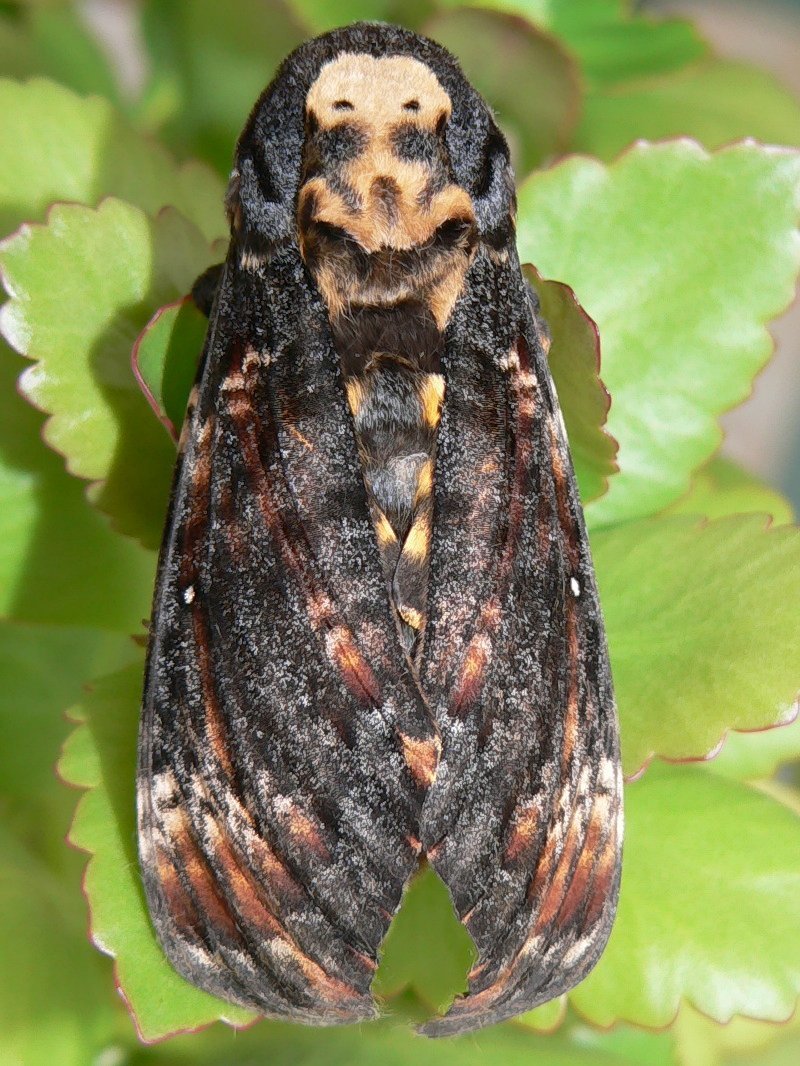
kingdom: Animalia
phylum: Arthropoda
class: Insecta
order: Lepidoptera
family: Sphingidae
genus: Acherontia
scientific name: Acherontia atropos
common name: Death's-head hawk moth
